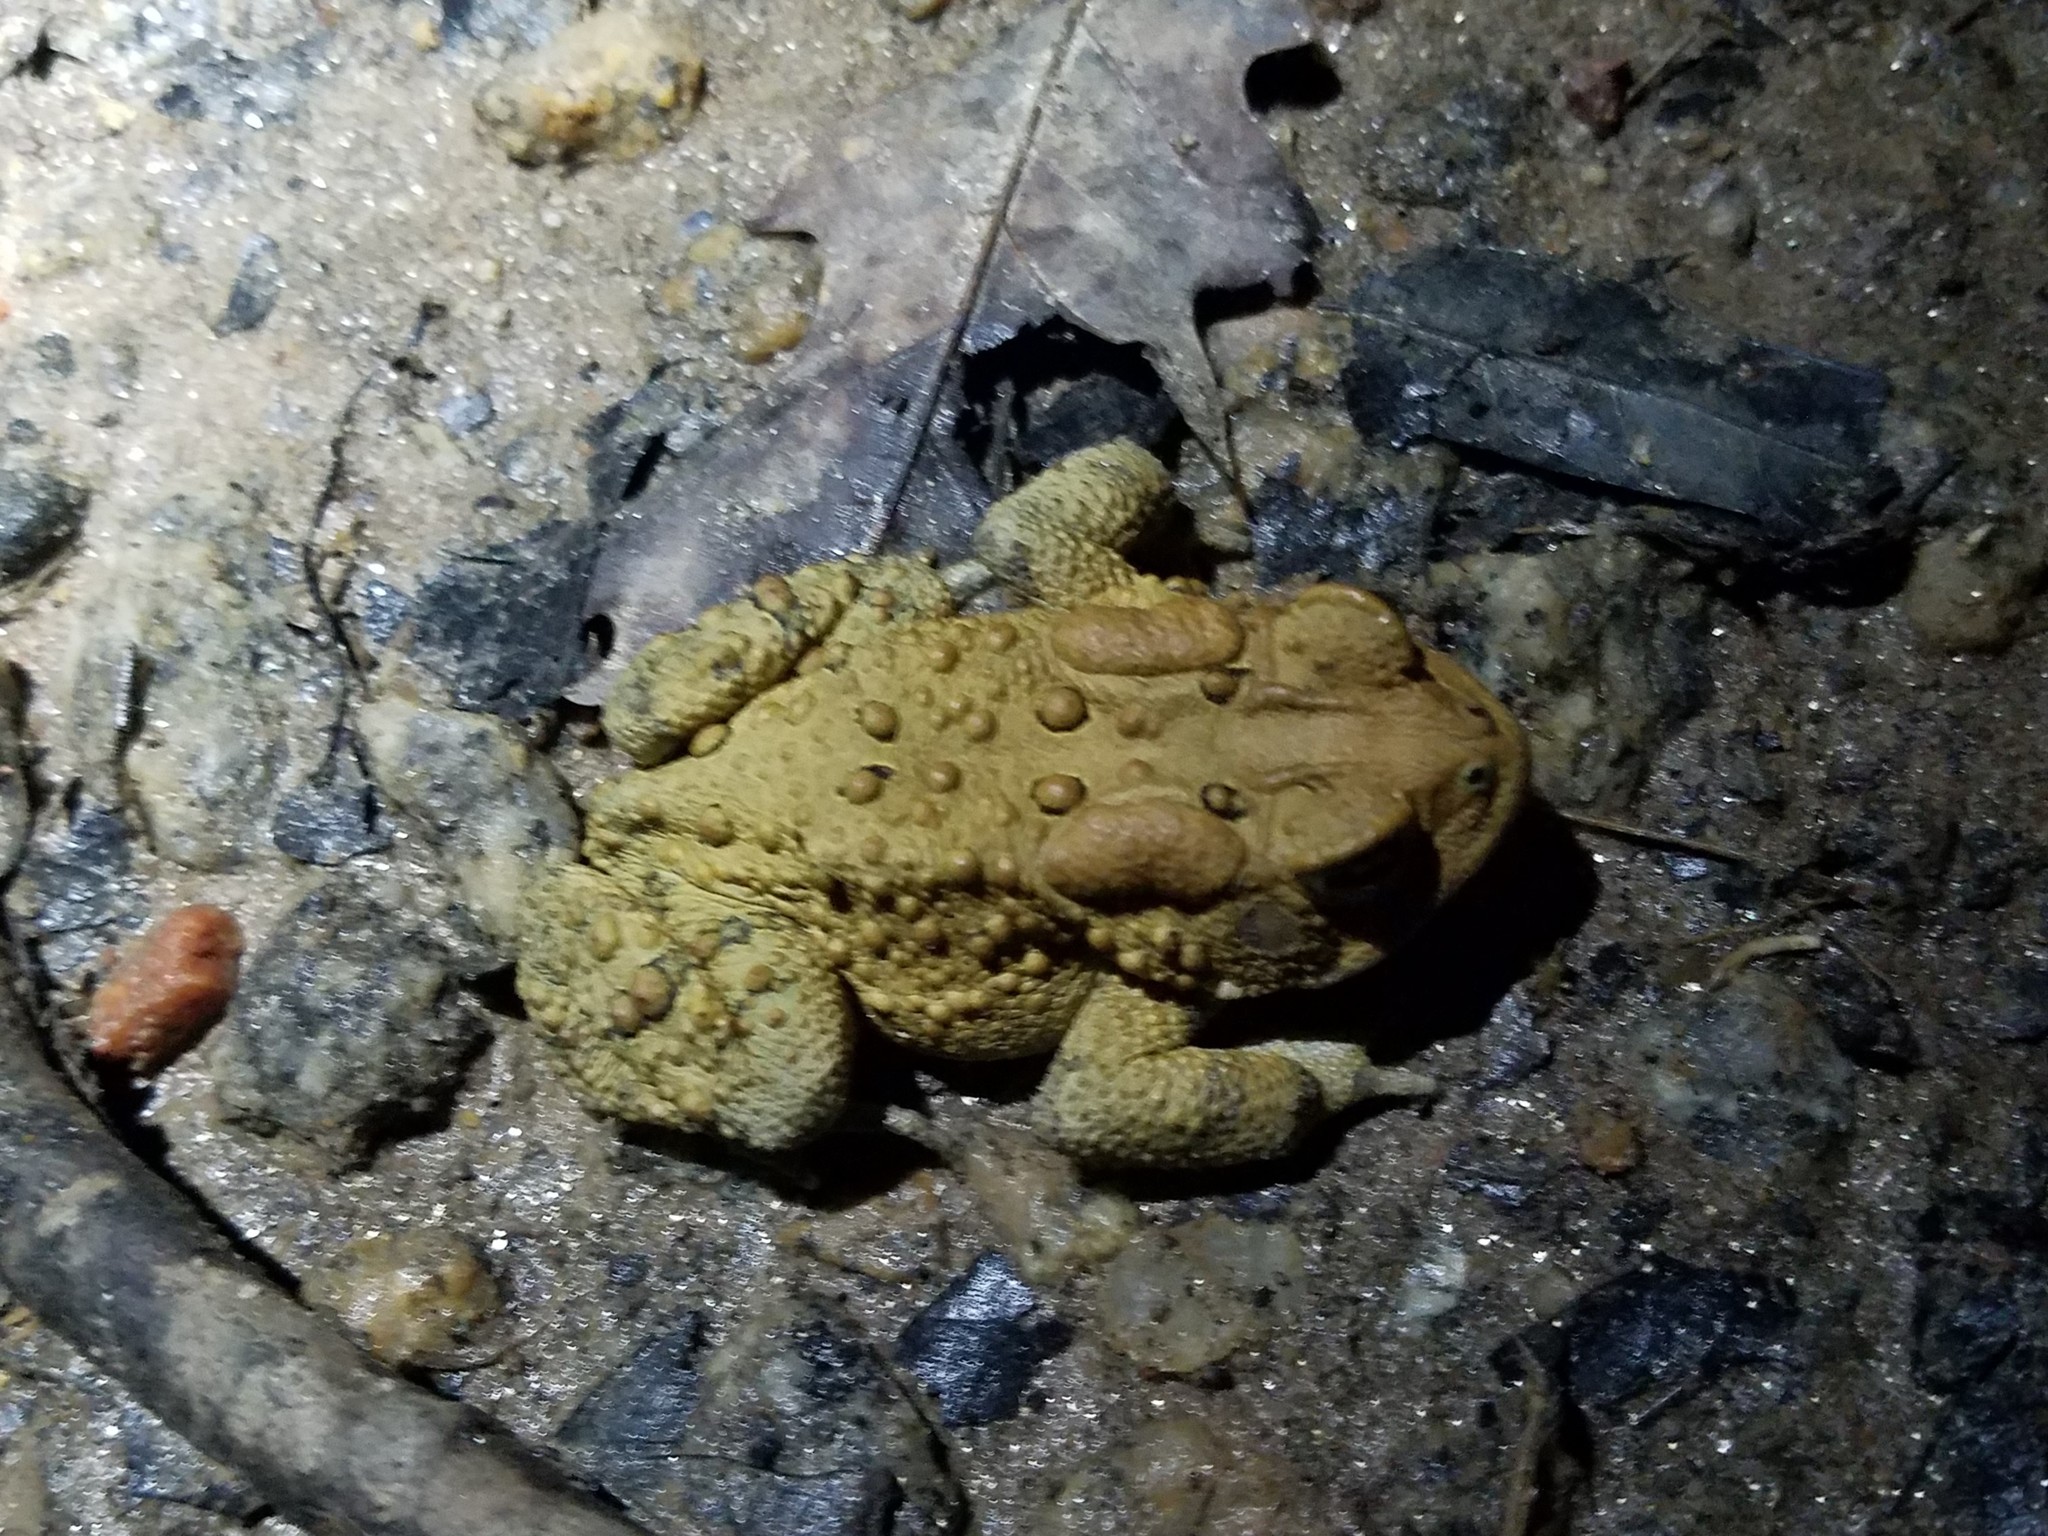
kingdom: Animalia
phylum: Chordata
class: Amphibia
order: Anura
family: Bufonidae
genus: Anaxyrus
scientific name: Anaxyrus americanus
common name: American toad
